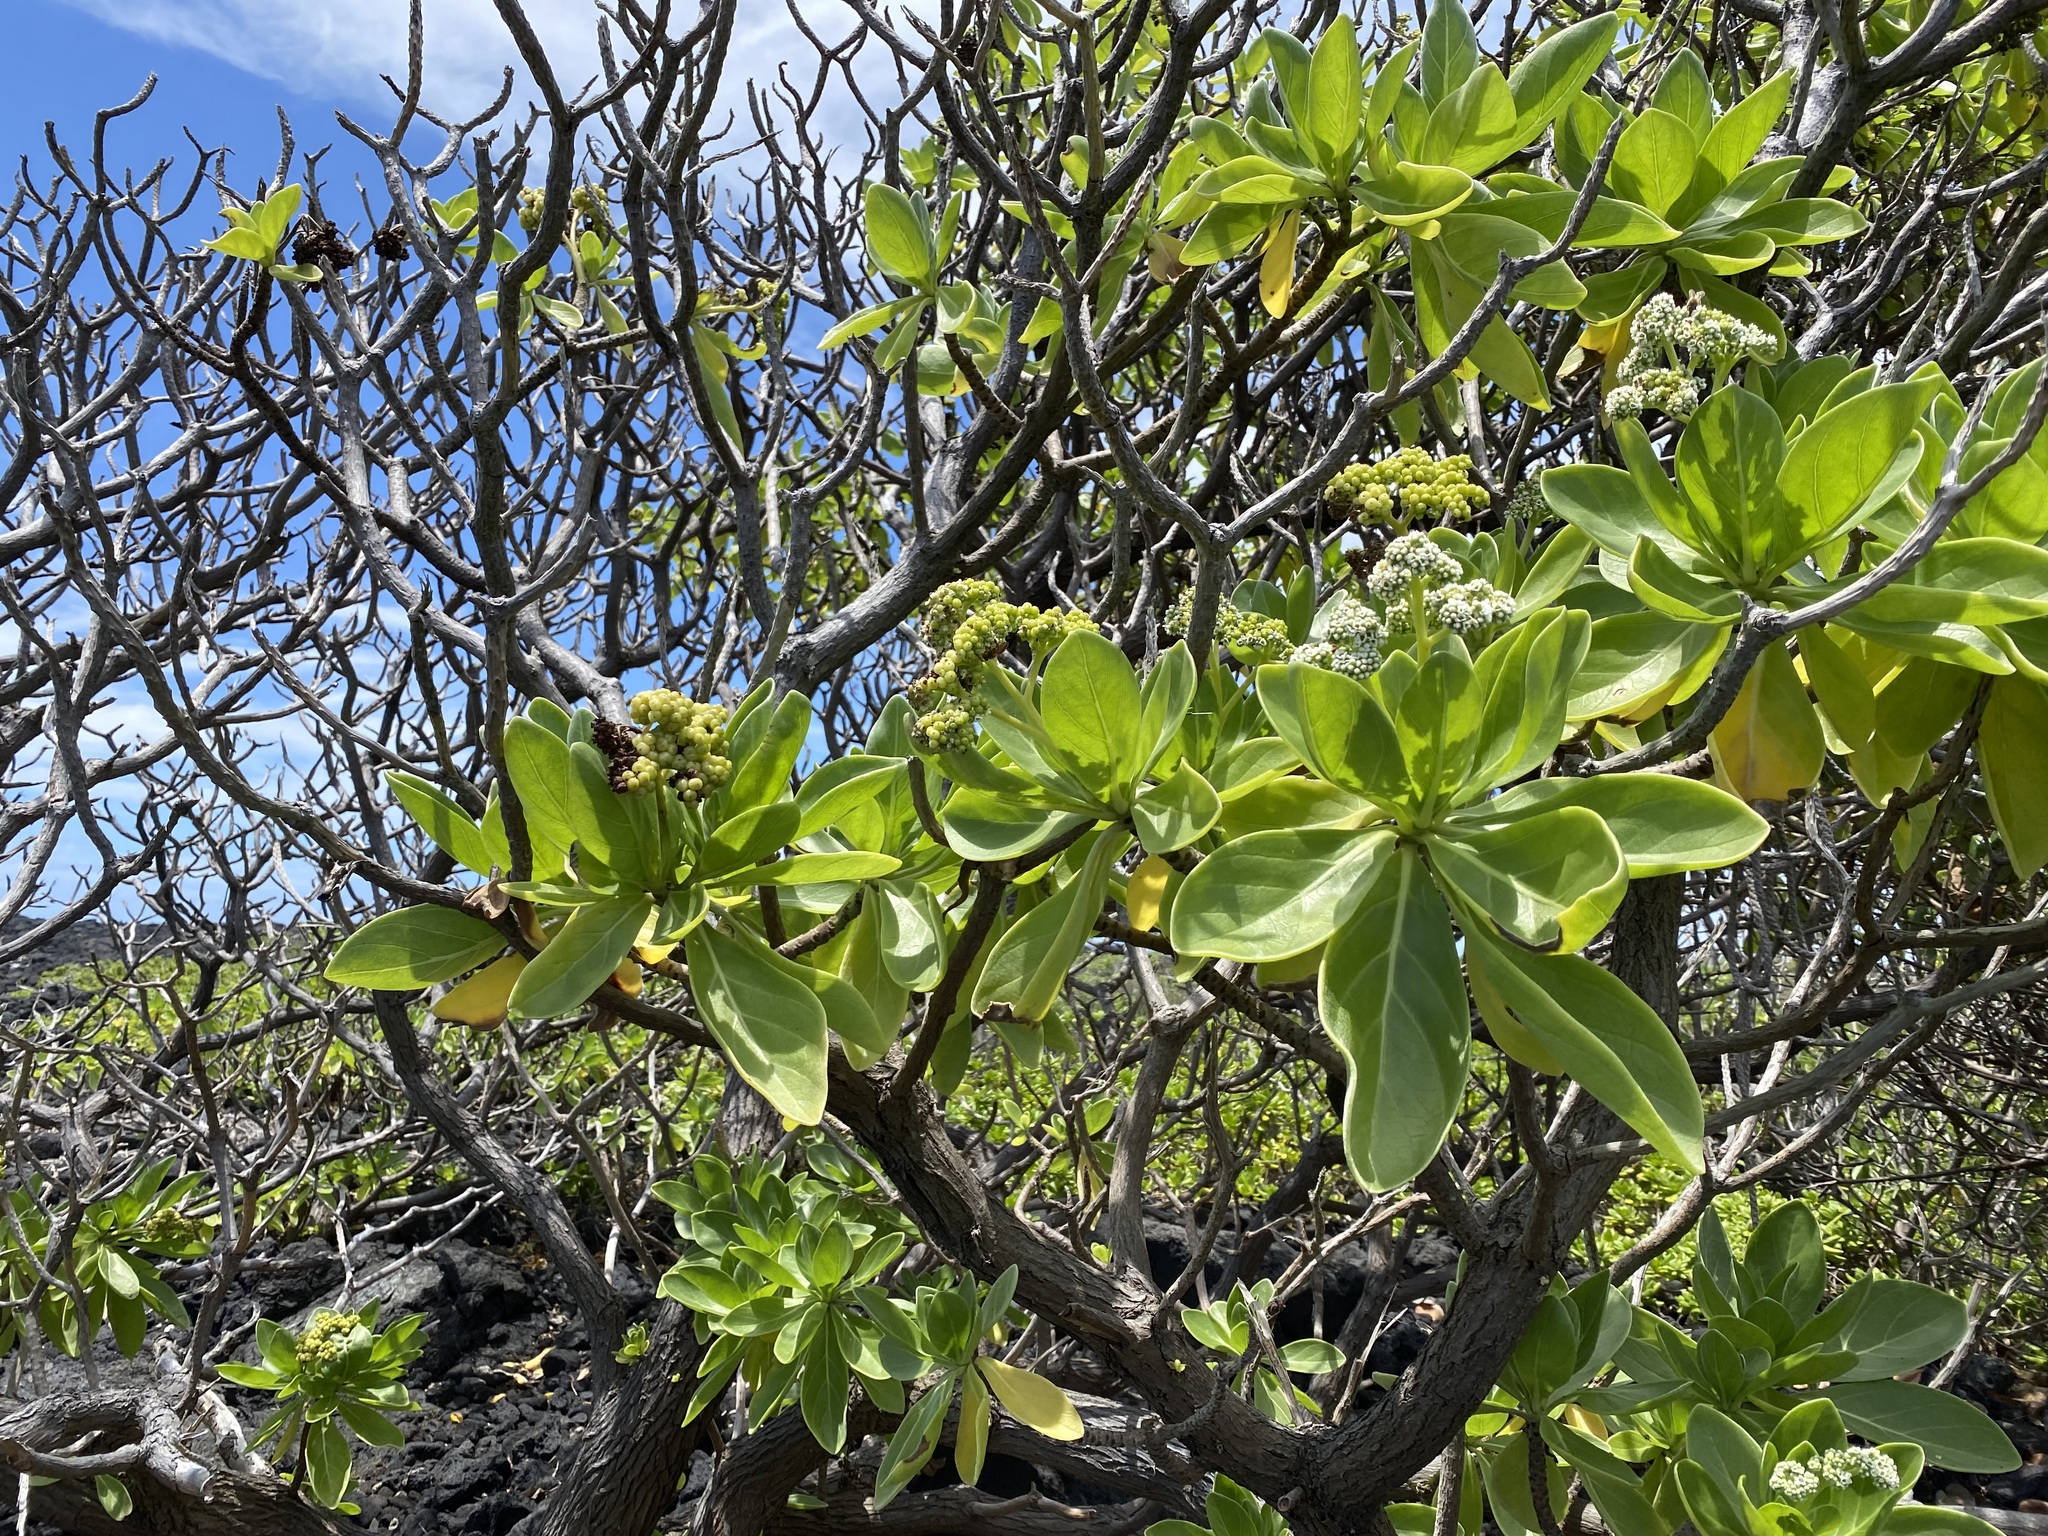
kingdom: Plantae
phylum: Tracheophyta
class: Magnoliopsida
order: Boraginales
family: Heliotropiaceae
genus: Heliotropium
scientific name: Heliotropium velutinum
